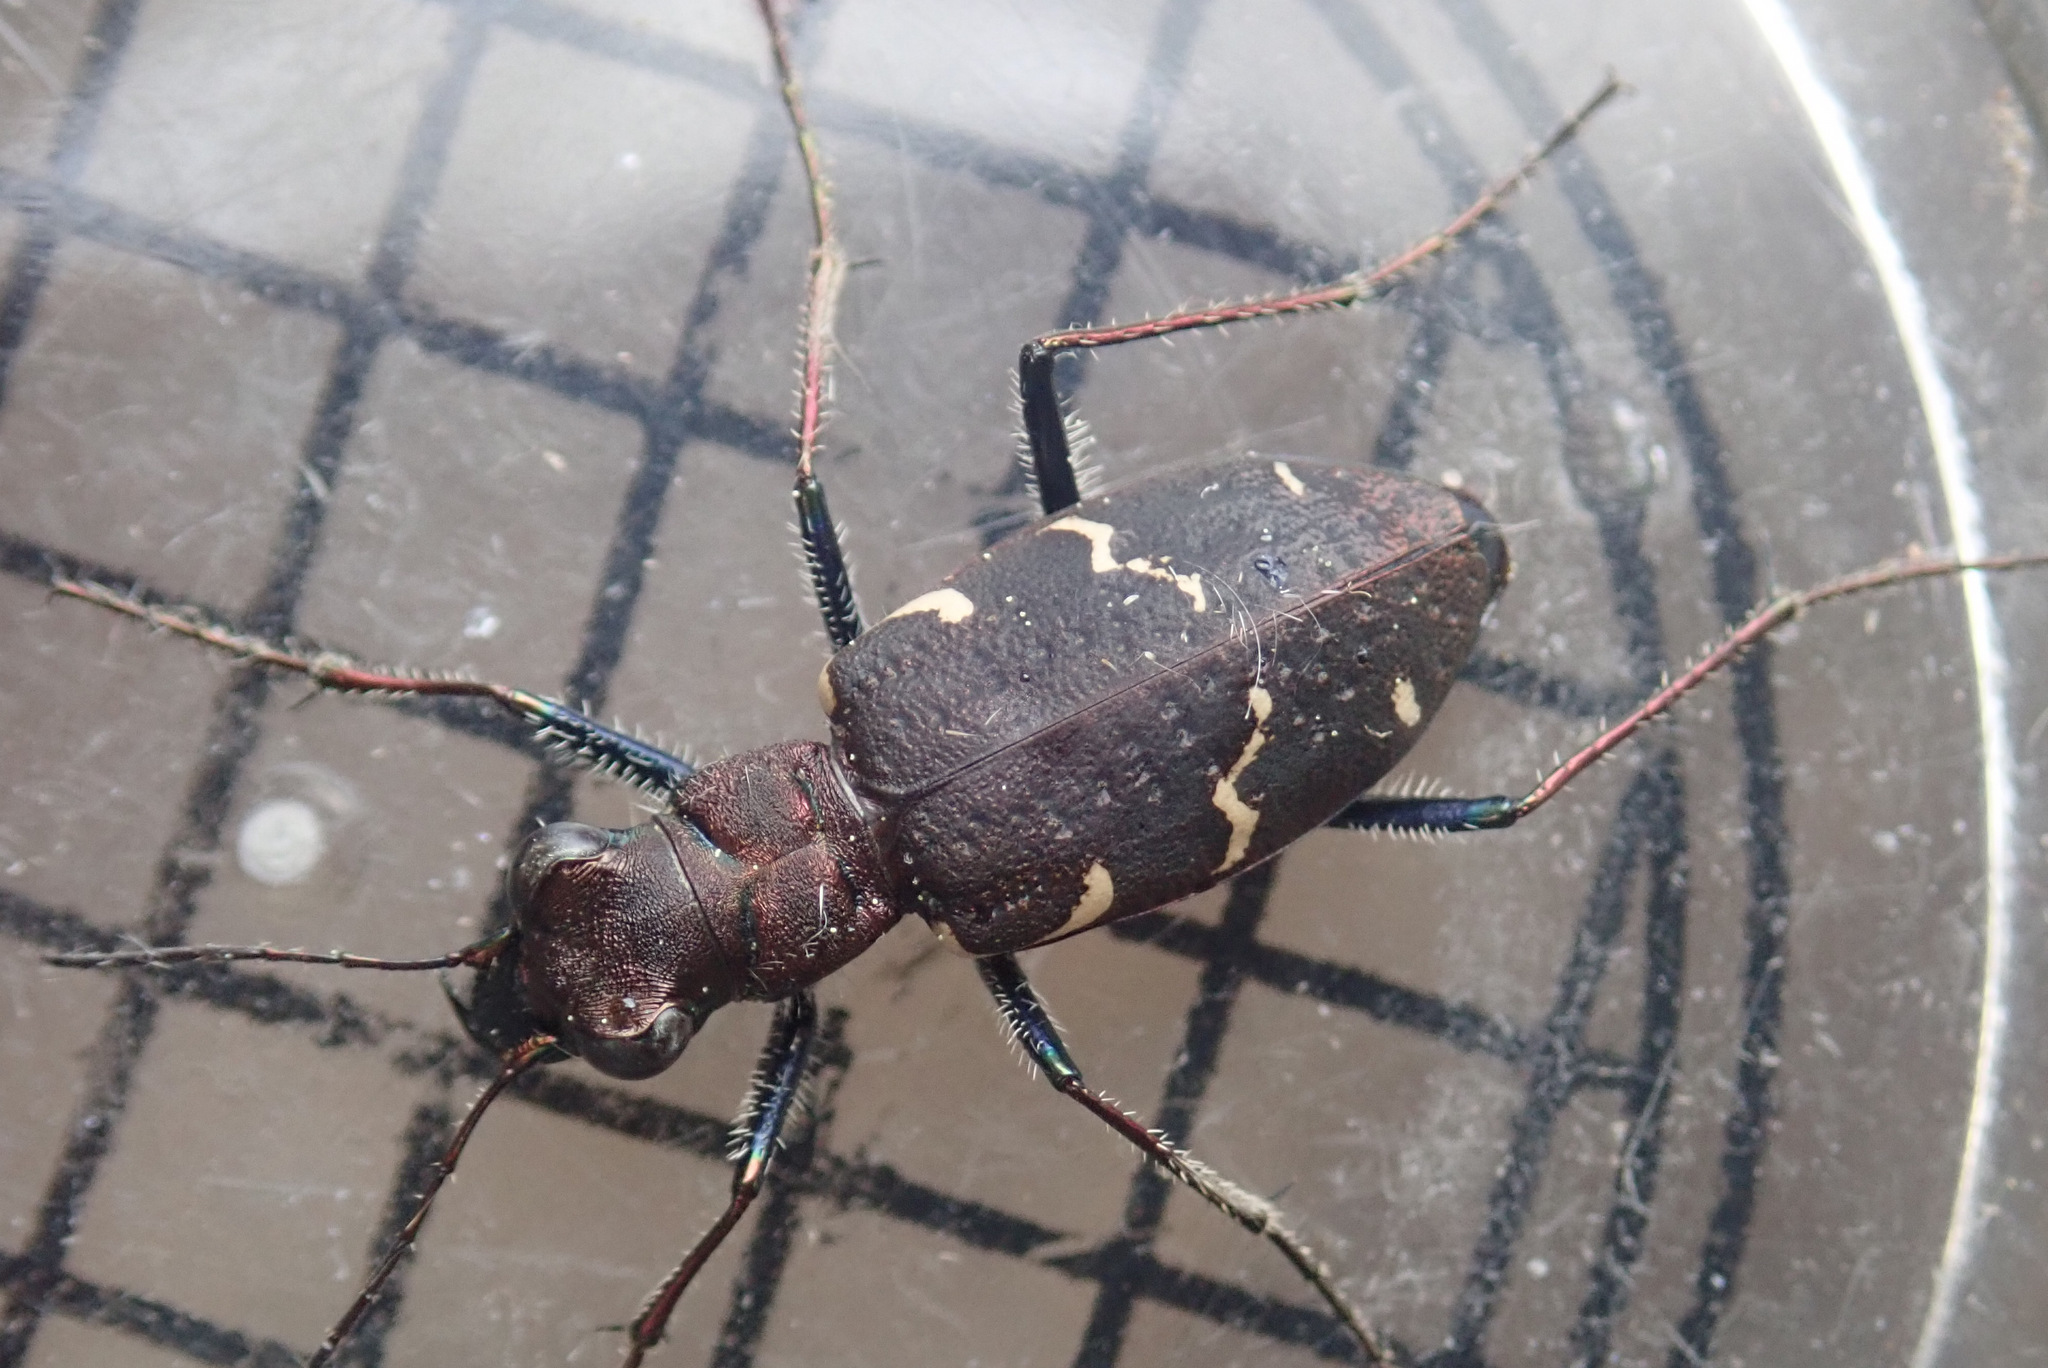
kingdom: Animalia
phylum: Arthropoda
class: Insecta
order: Coleoptera
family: Carabidae
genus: Cicindela
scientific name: Cicindela sylvatica
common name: Heath tiger beetle
